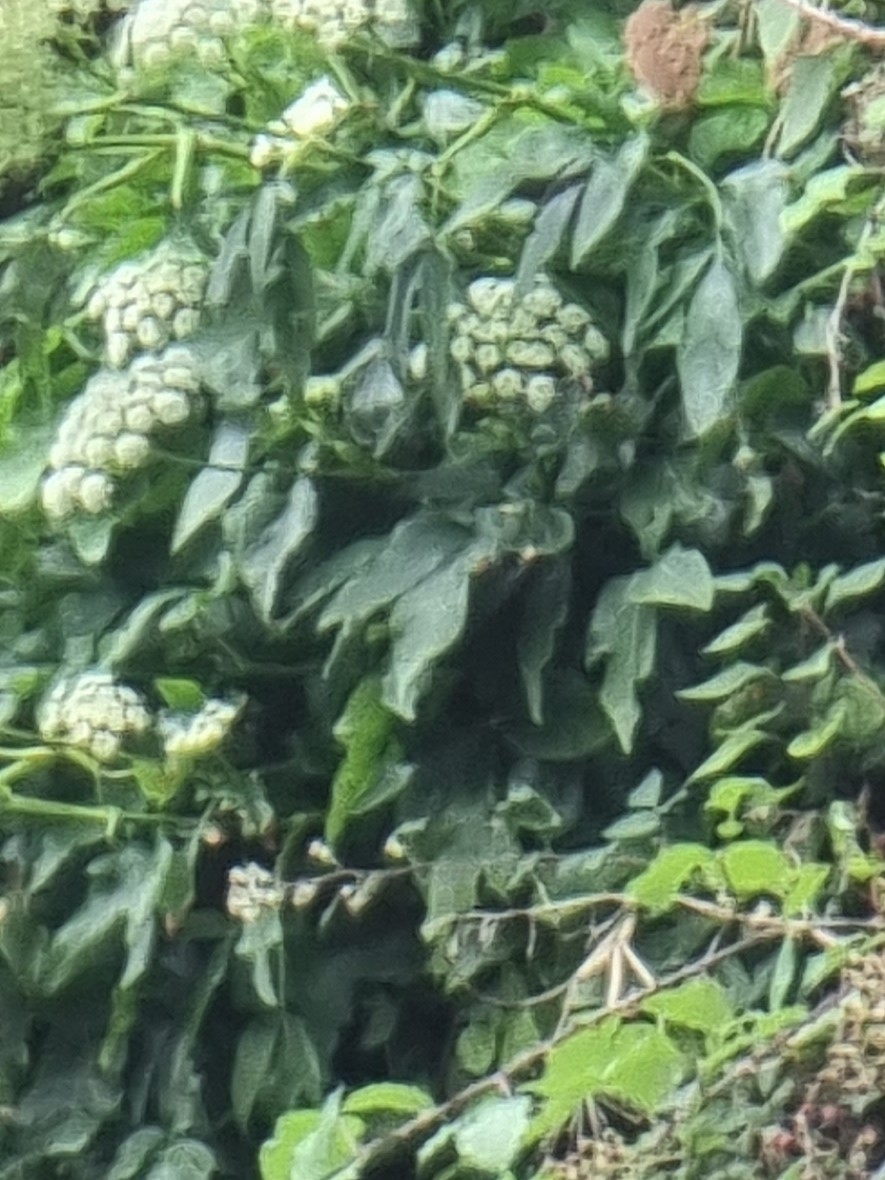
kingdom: Plantae
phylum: Tracheophyta
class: Magnoliopsida
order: Apiales
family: Apiaceae
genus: Imperatoria
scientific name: Imperatoria lowei
